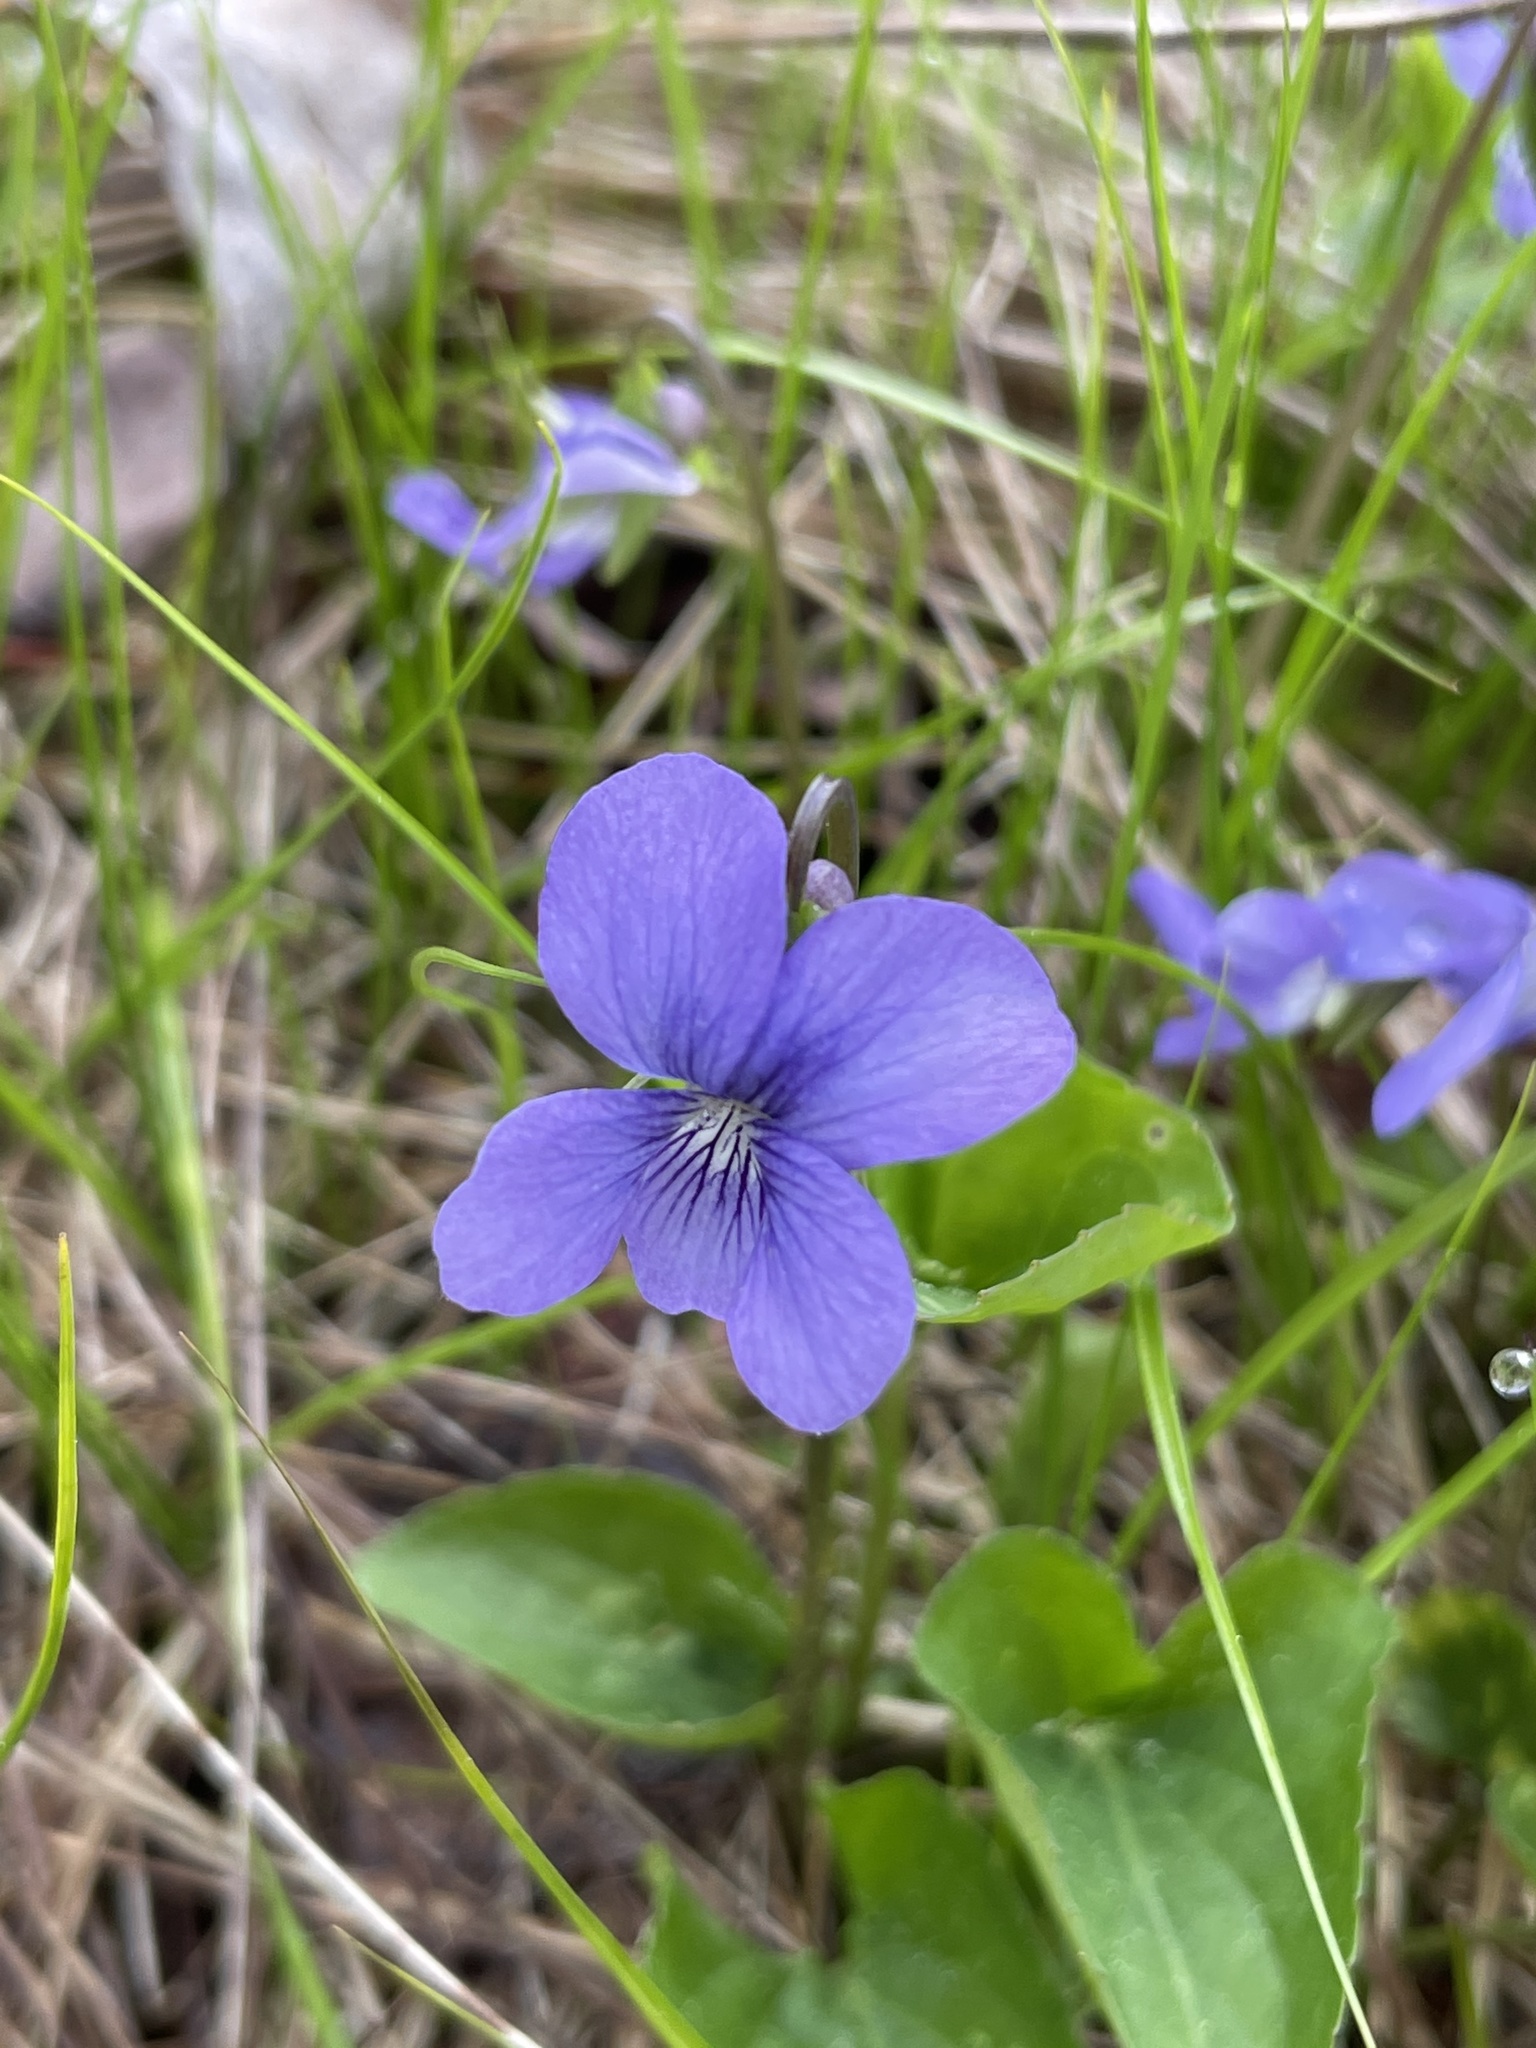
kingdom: Plantae
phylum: Tracheophyta
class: Magnoliopsida
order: Malpighiales
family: Violaceae
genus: Viola
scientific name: Viola cucullata
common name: Marsh blue violet
